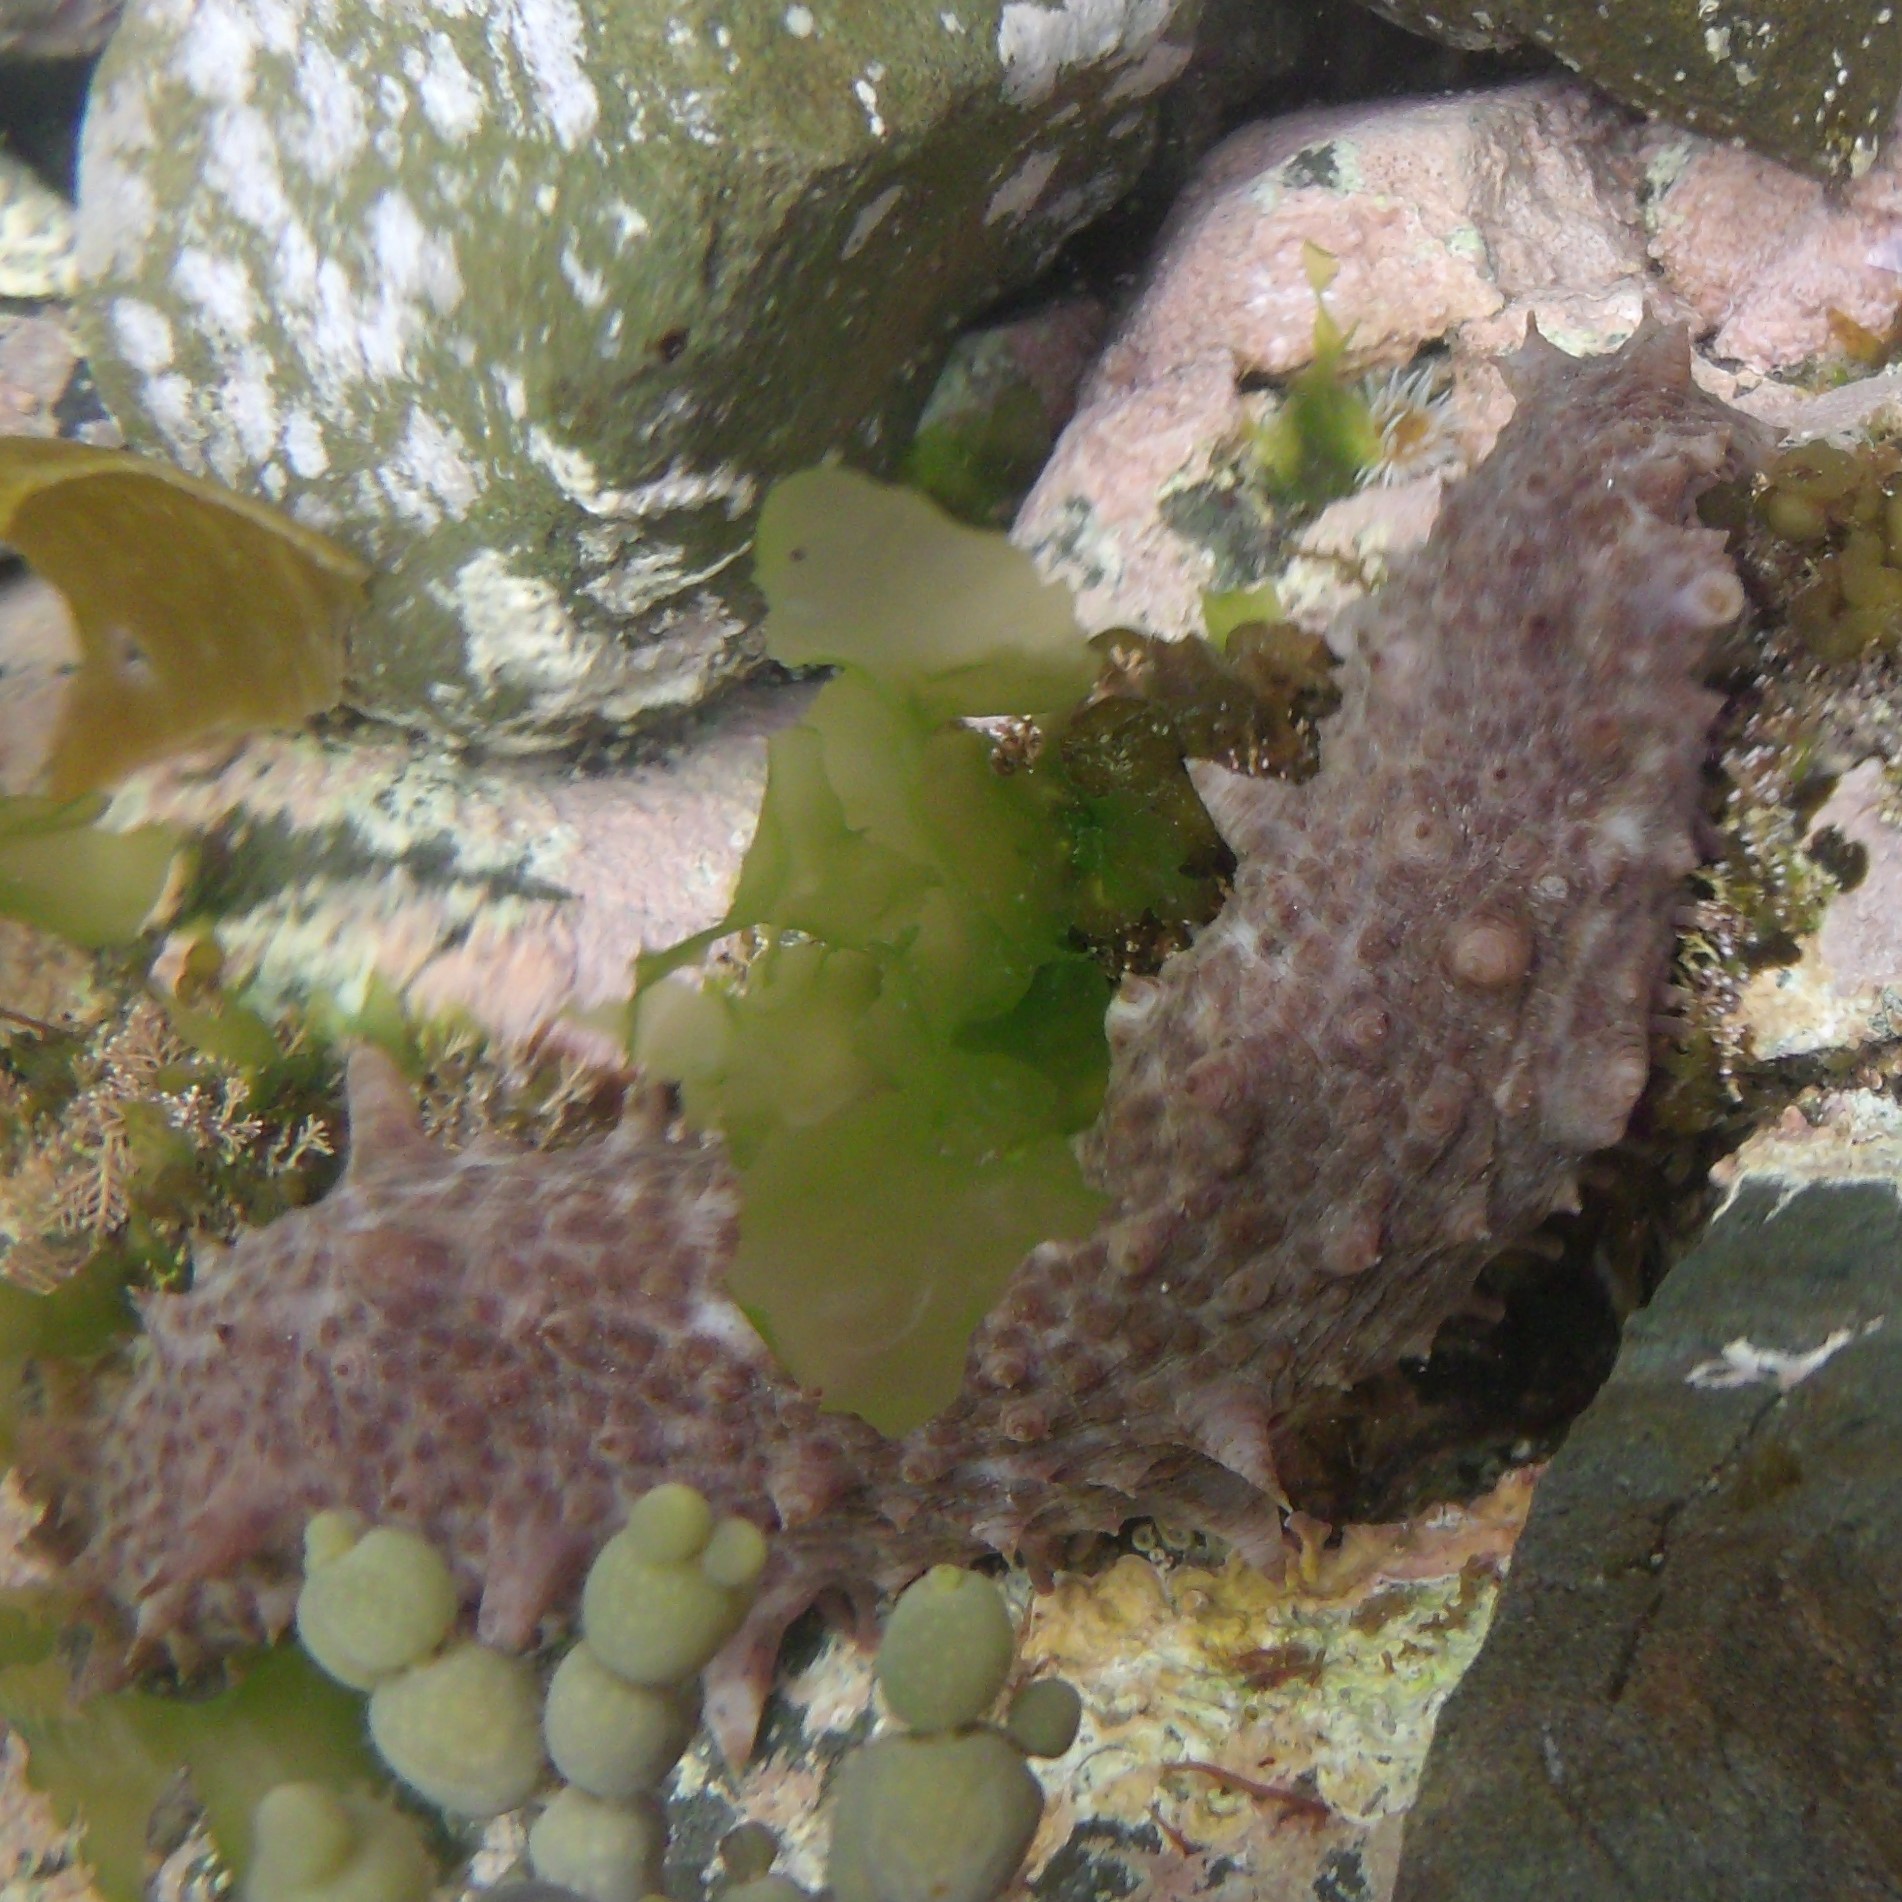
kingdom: Animalia
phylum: Echinodermata
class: Holothuroidea
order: Synallactida
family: Stichopodidae
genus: Australostichopus
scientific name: Australostichopus mollis
